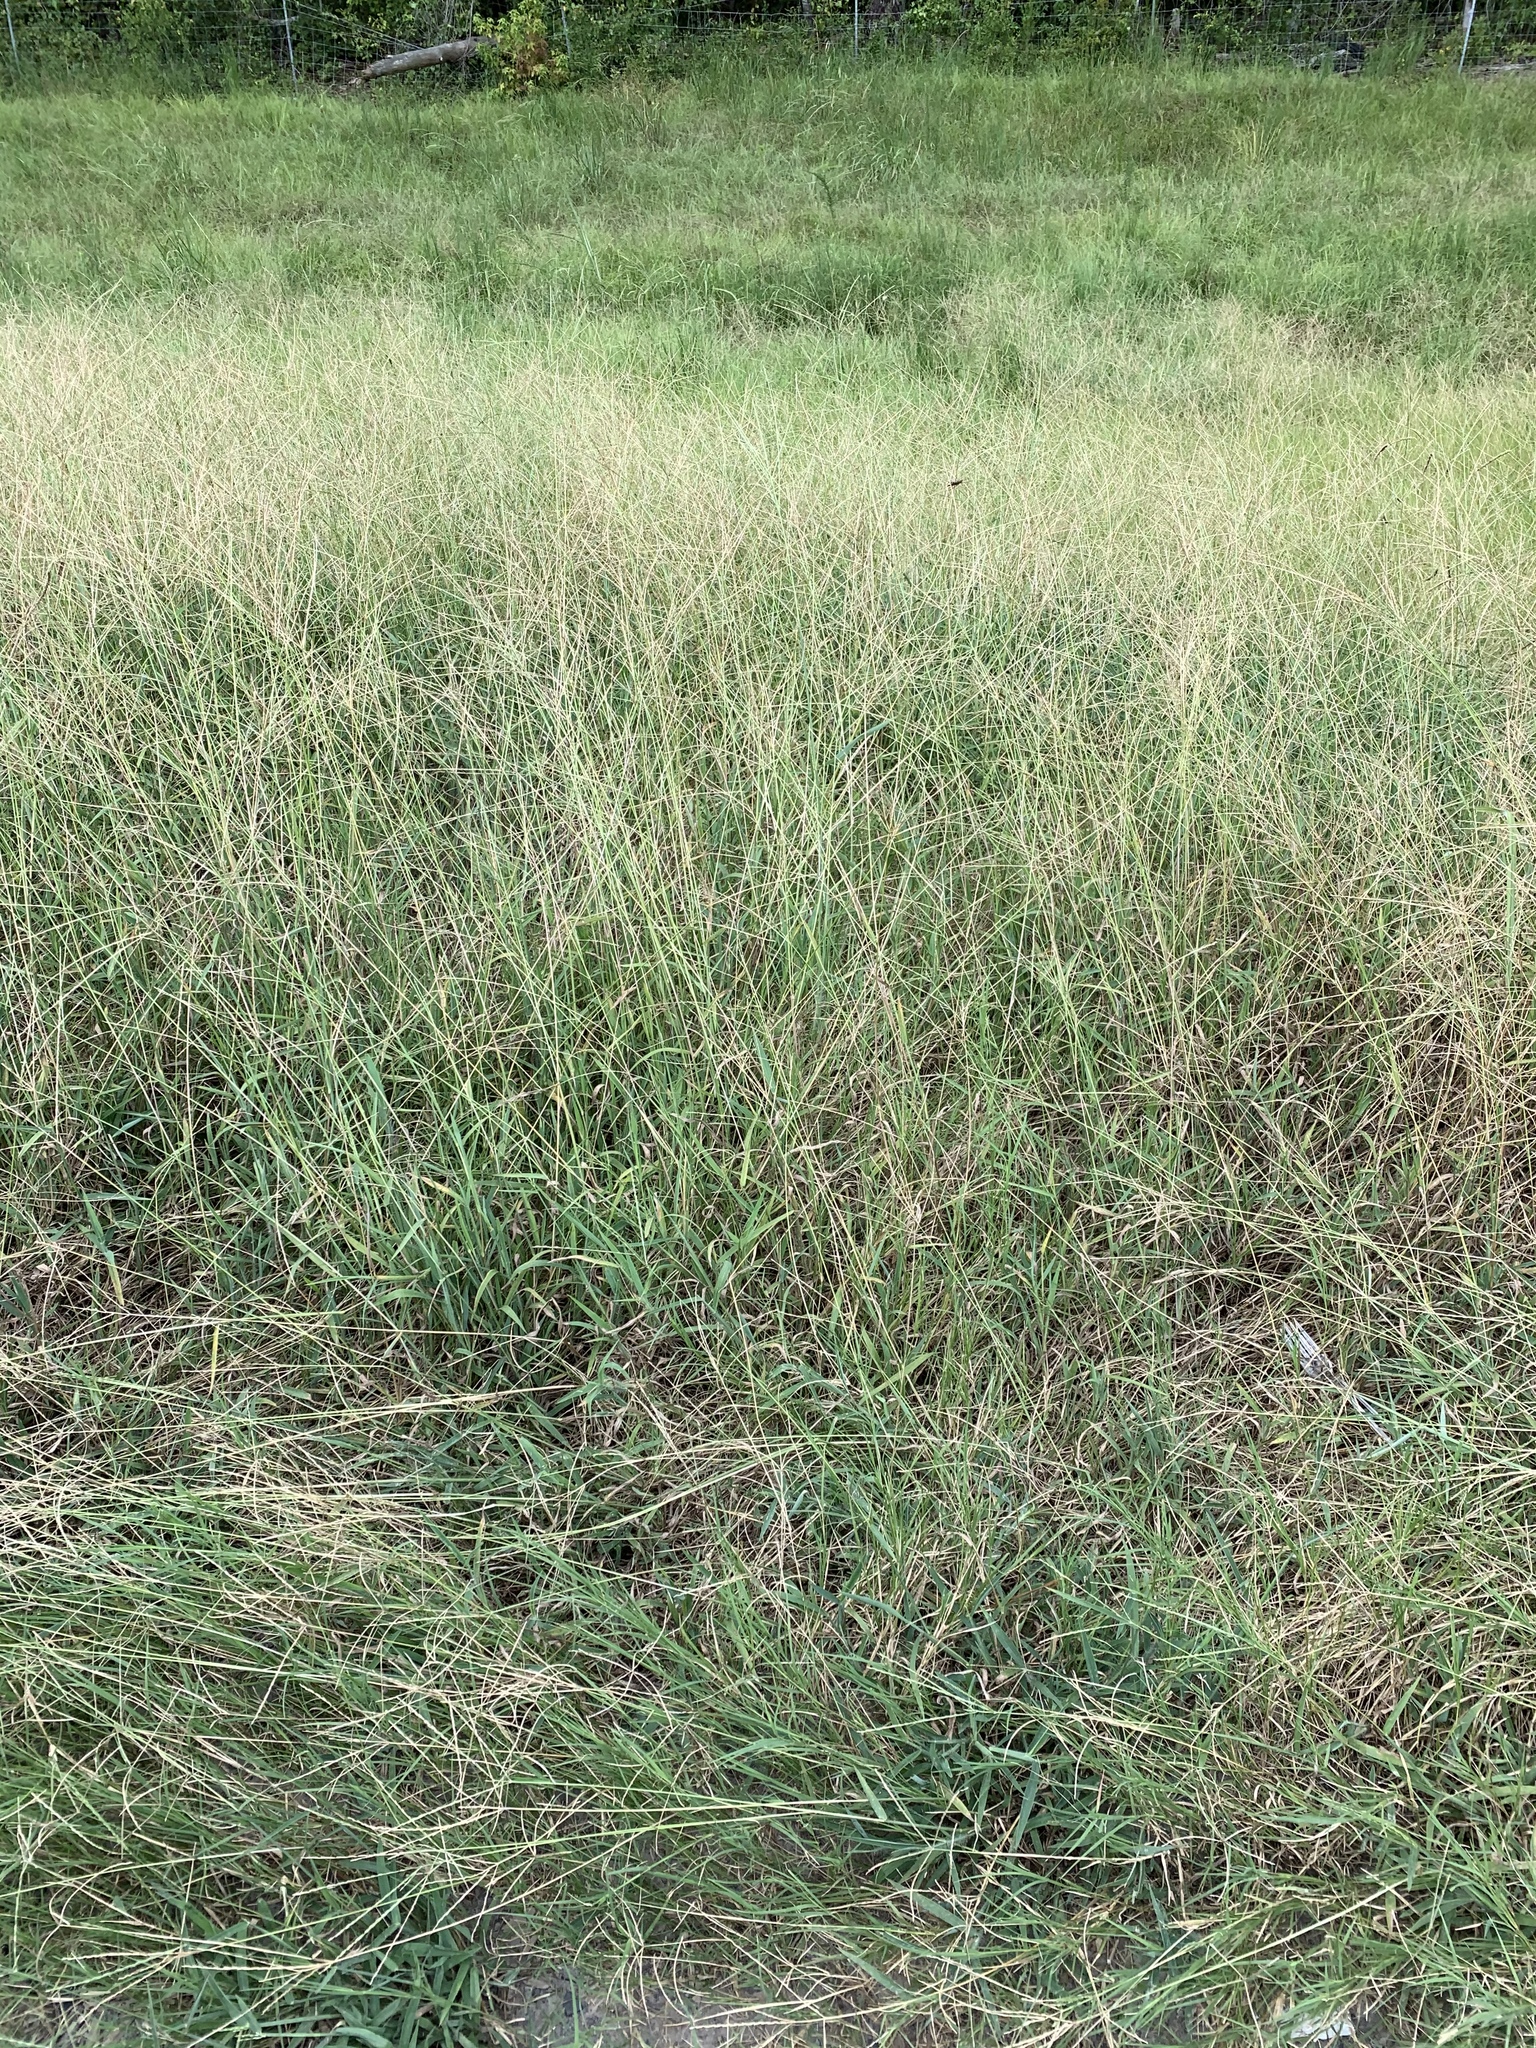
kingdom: Plantae
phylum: Tracheophyta
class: Liliopsida
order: Poales
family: Poaceae
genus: Digitaria
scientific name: Digitaria ciliaris
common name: Tropical finger-grass
